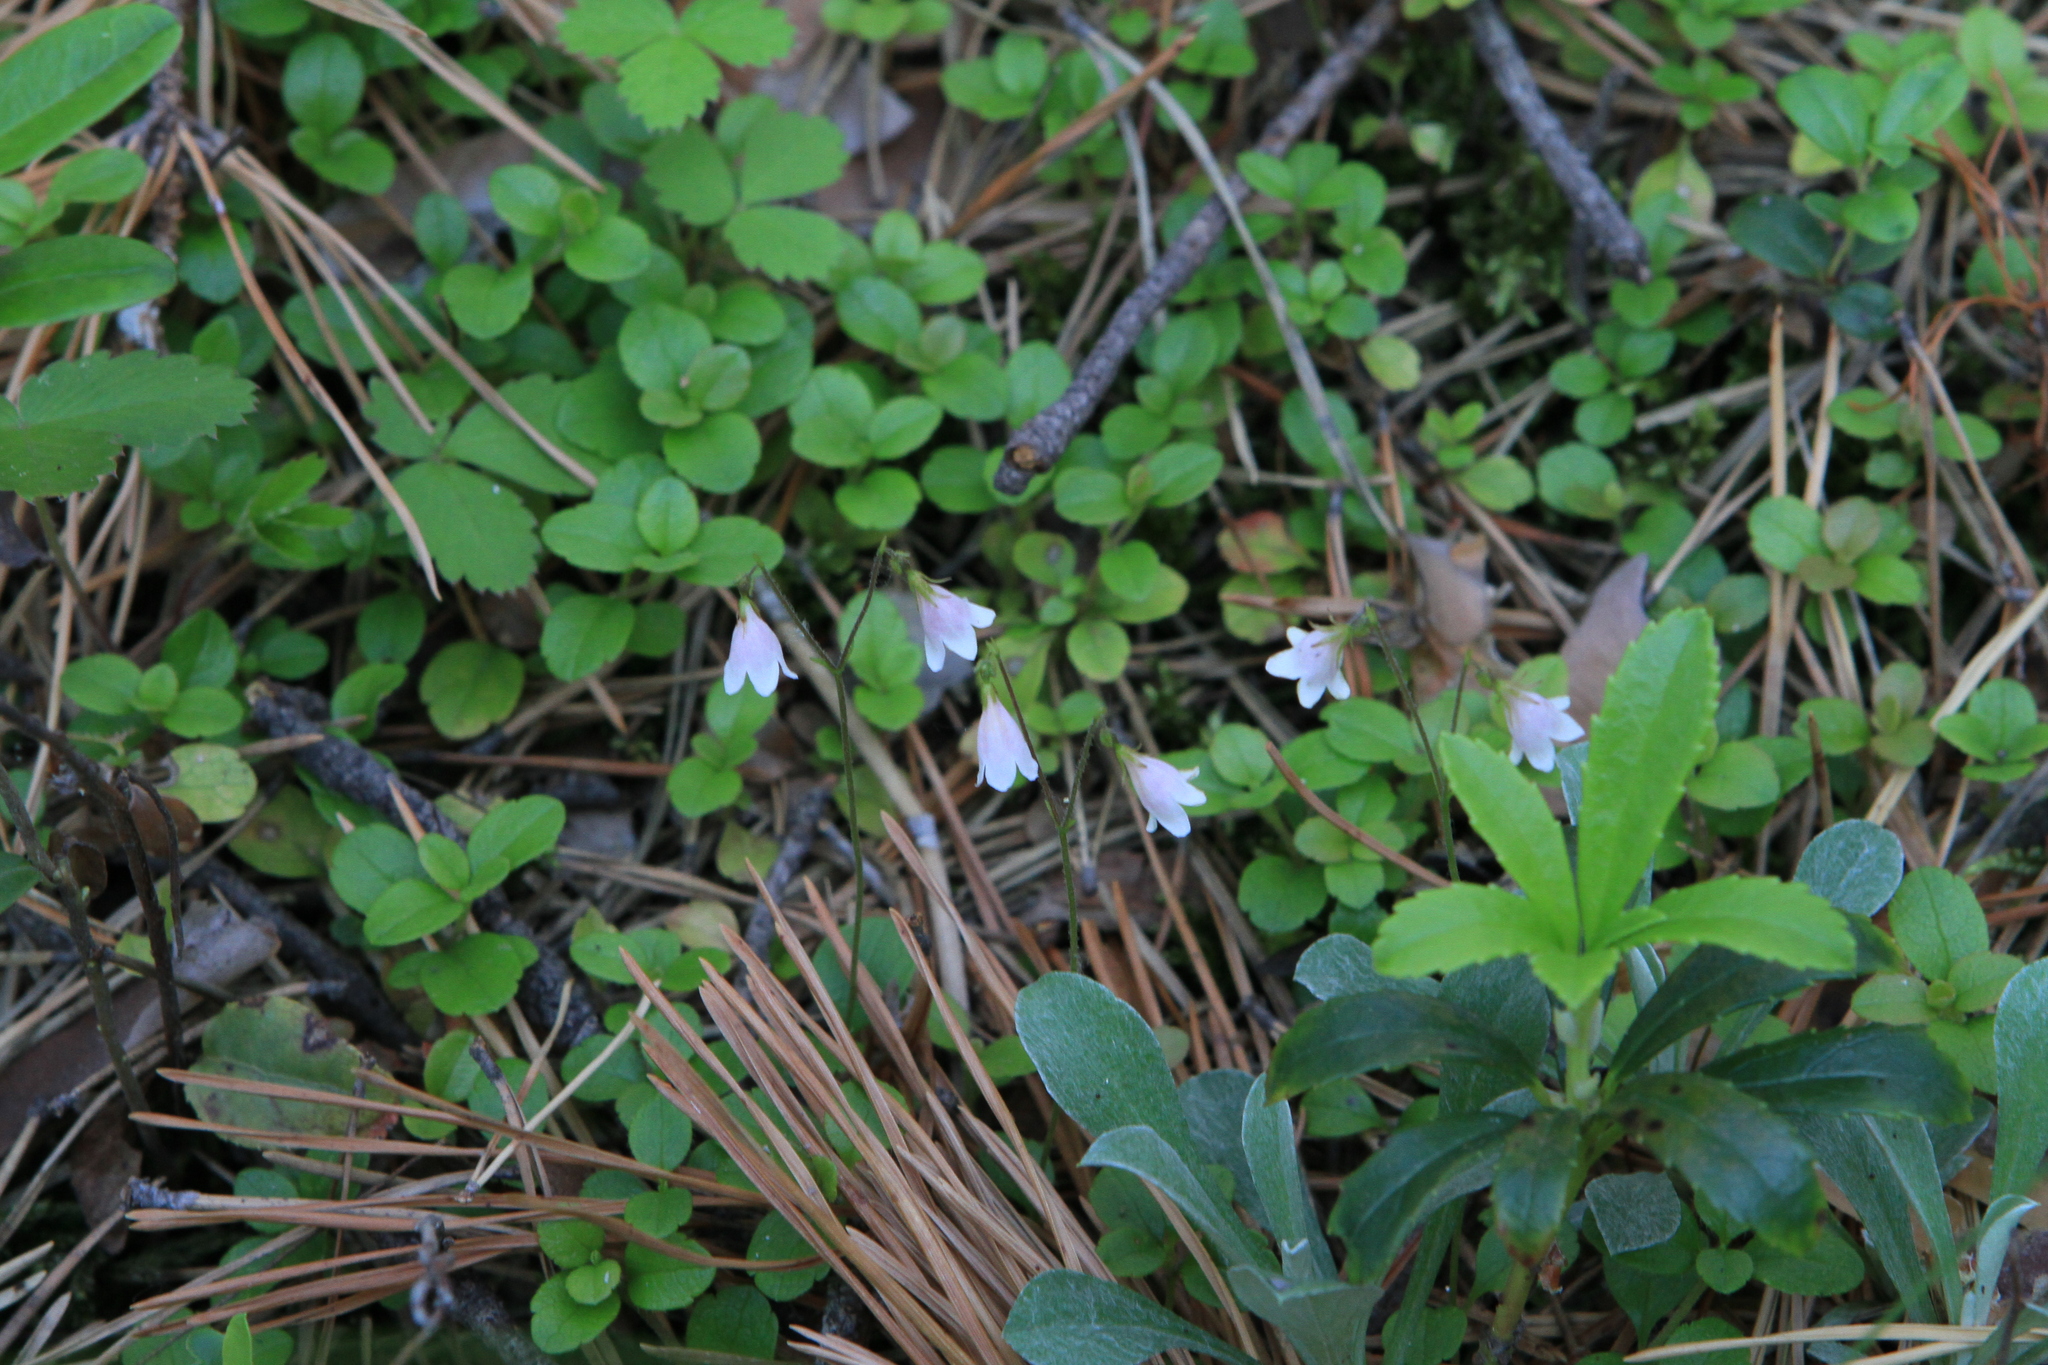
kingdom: Plantae
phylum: Tracheophyta
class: Magnoliopsida
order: Dipsacales
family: Caprifoliaceae
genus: Linnaea
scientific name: Linnaea borealis
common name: Twinflower
